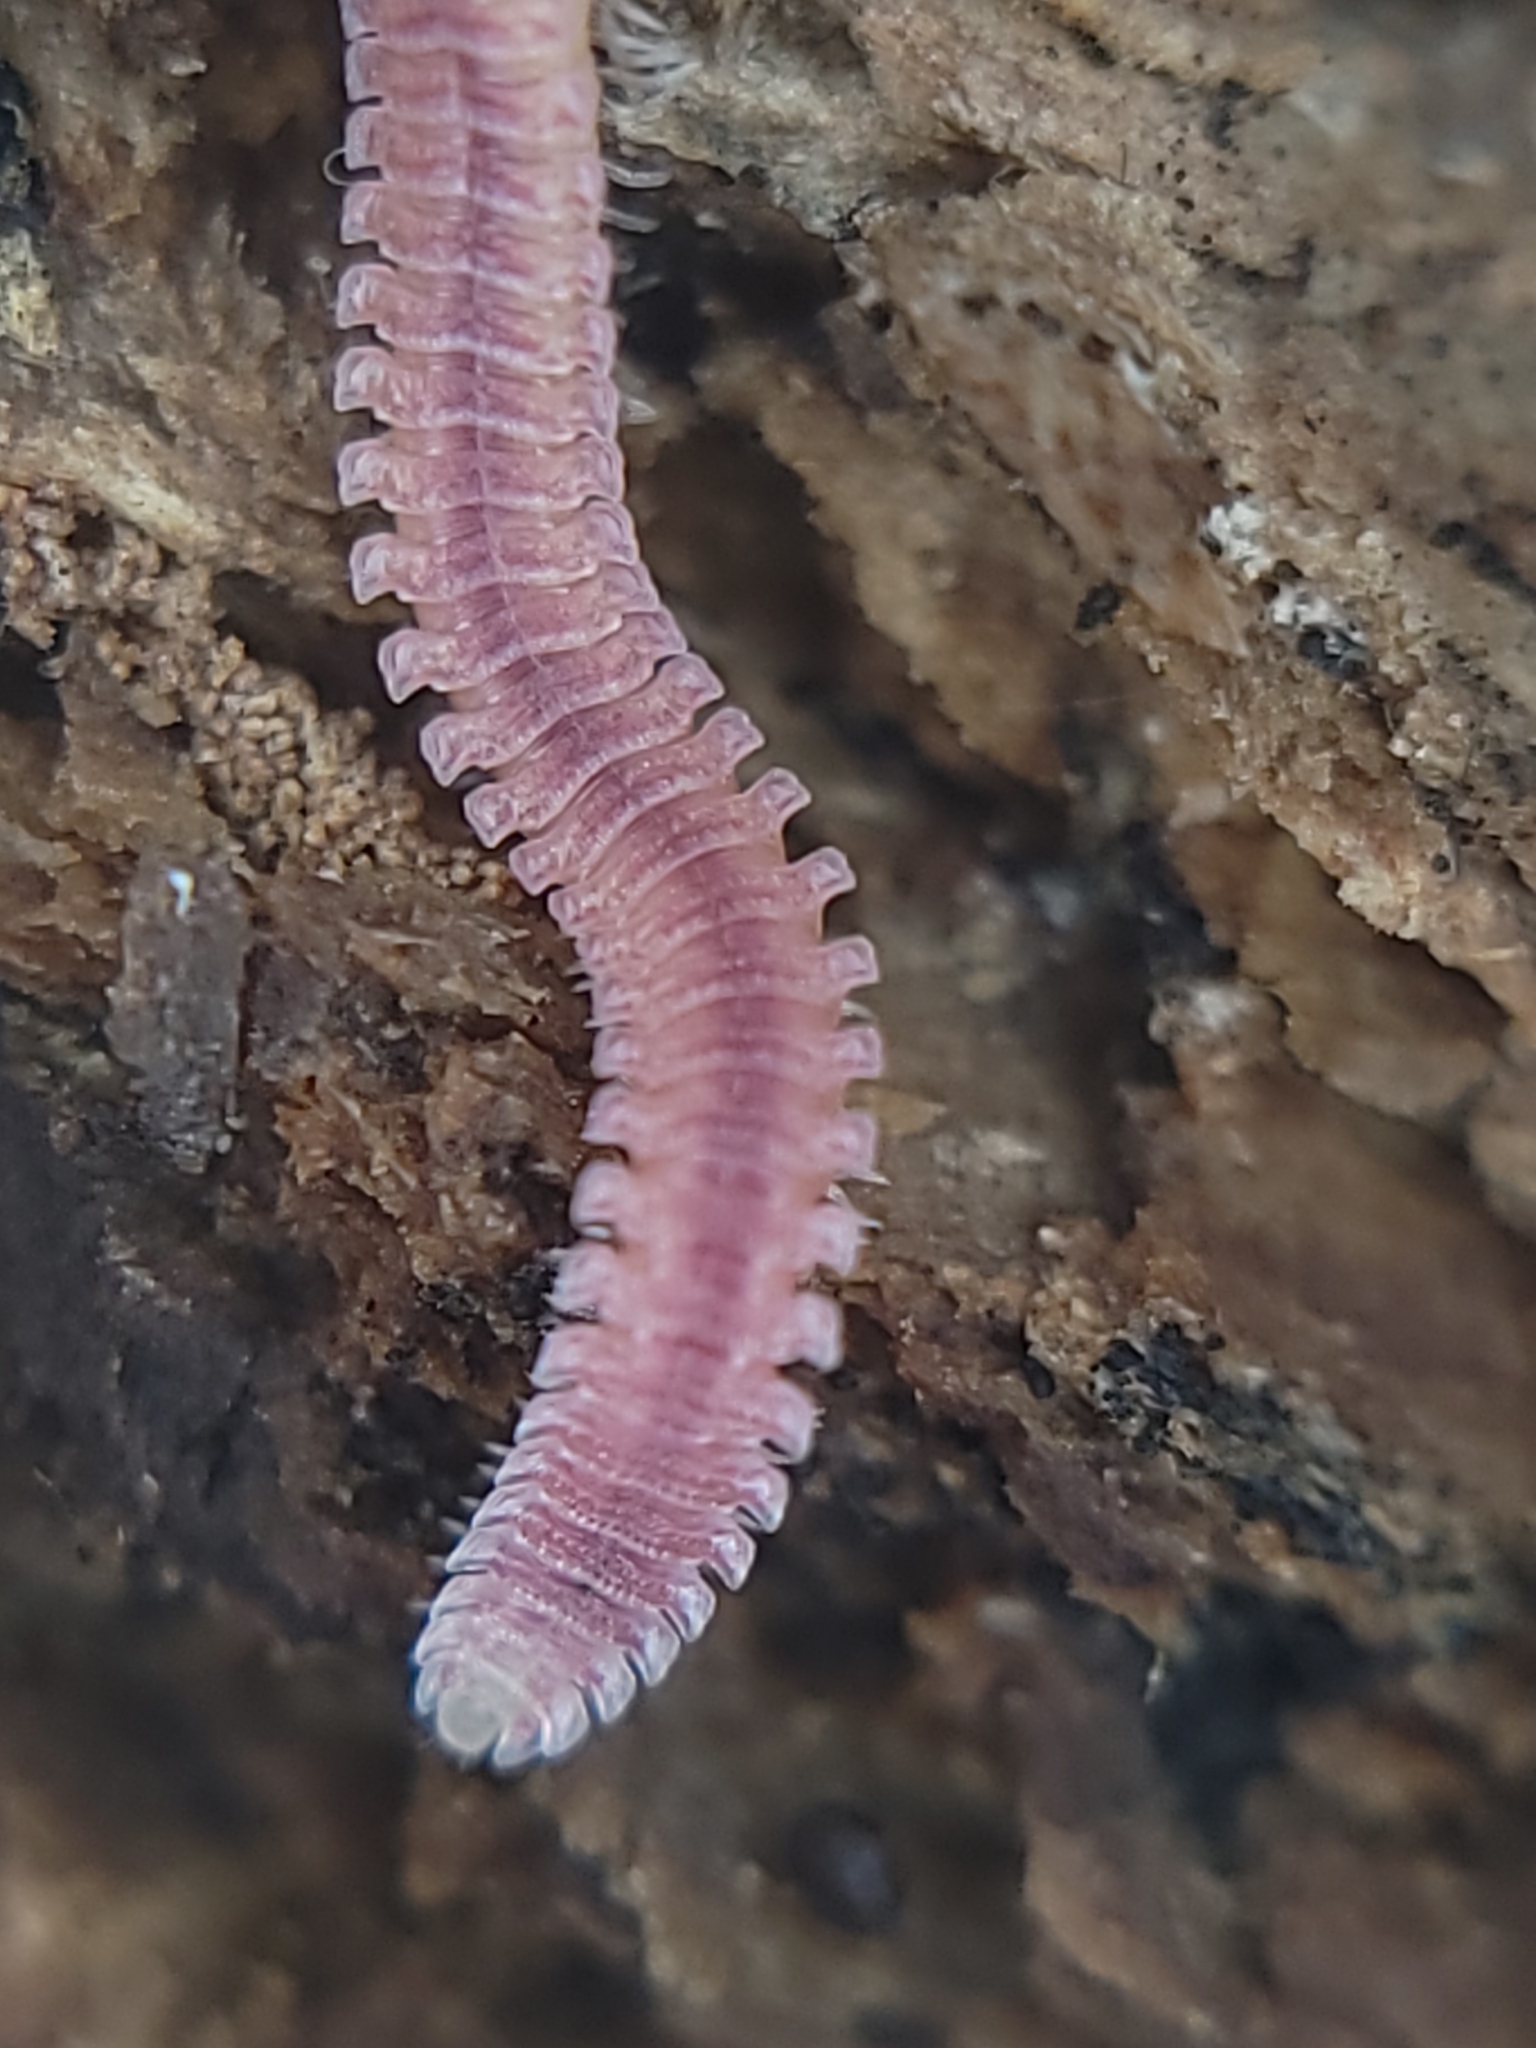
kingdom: Animalia
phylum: Arthropoda
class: Diplopoda
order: Platydesmida
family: Andrognathidae
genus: Gosodesmus
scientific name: Gosodesmus claremontus
